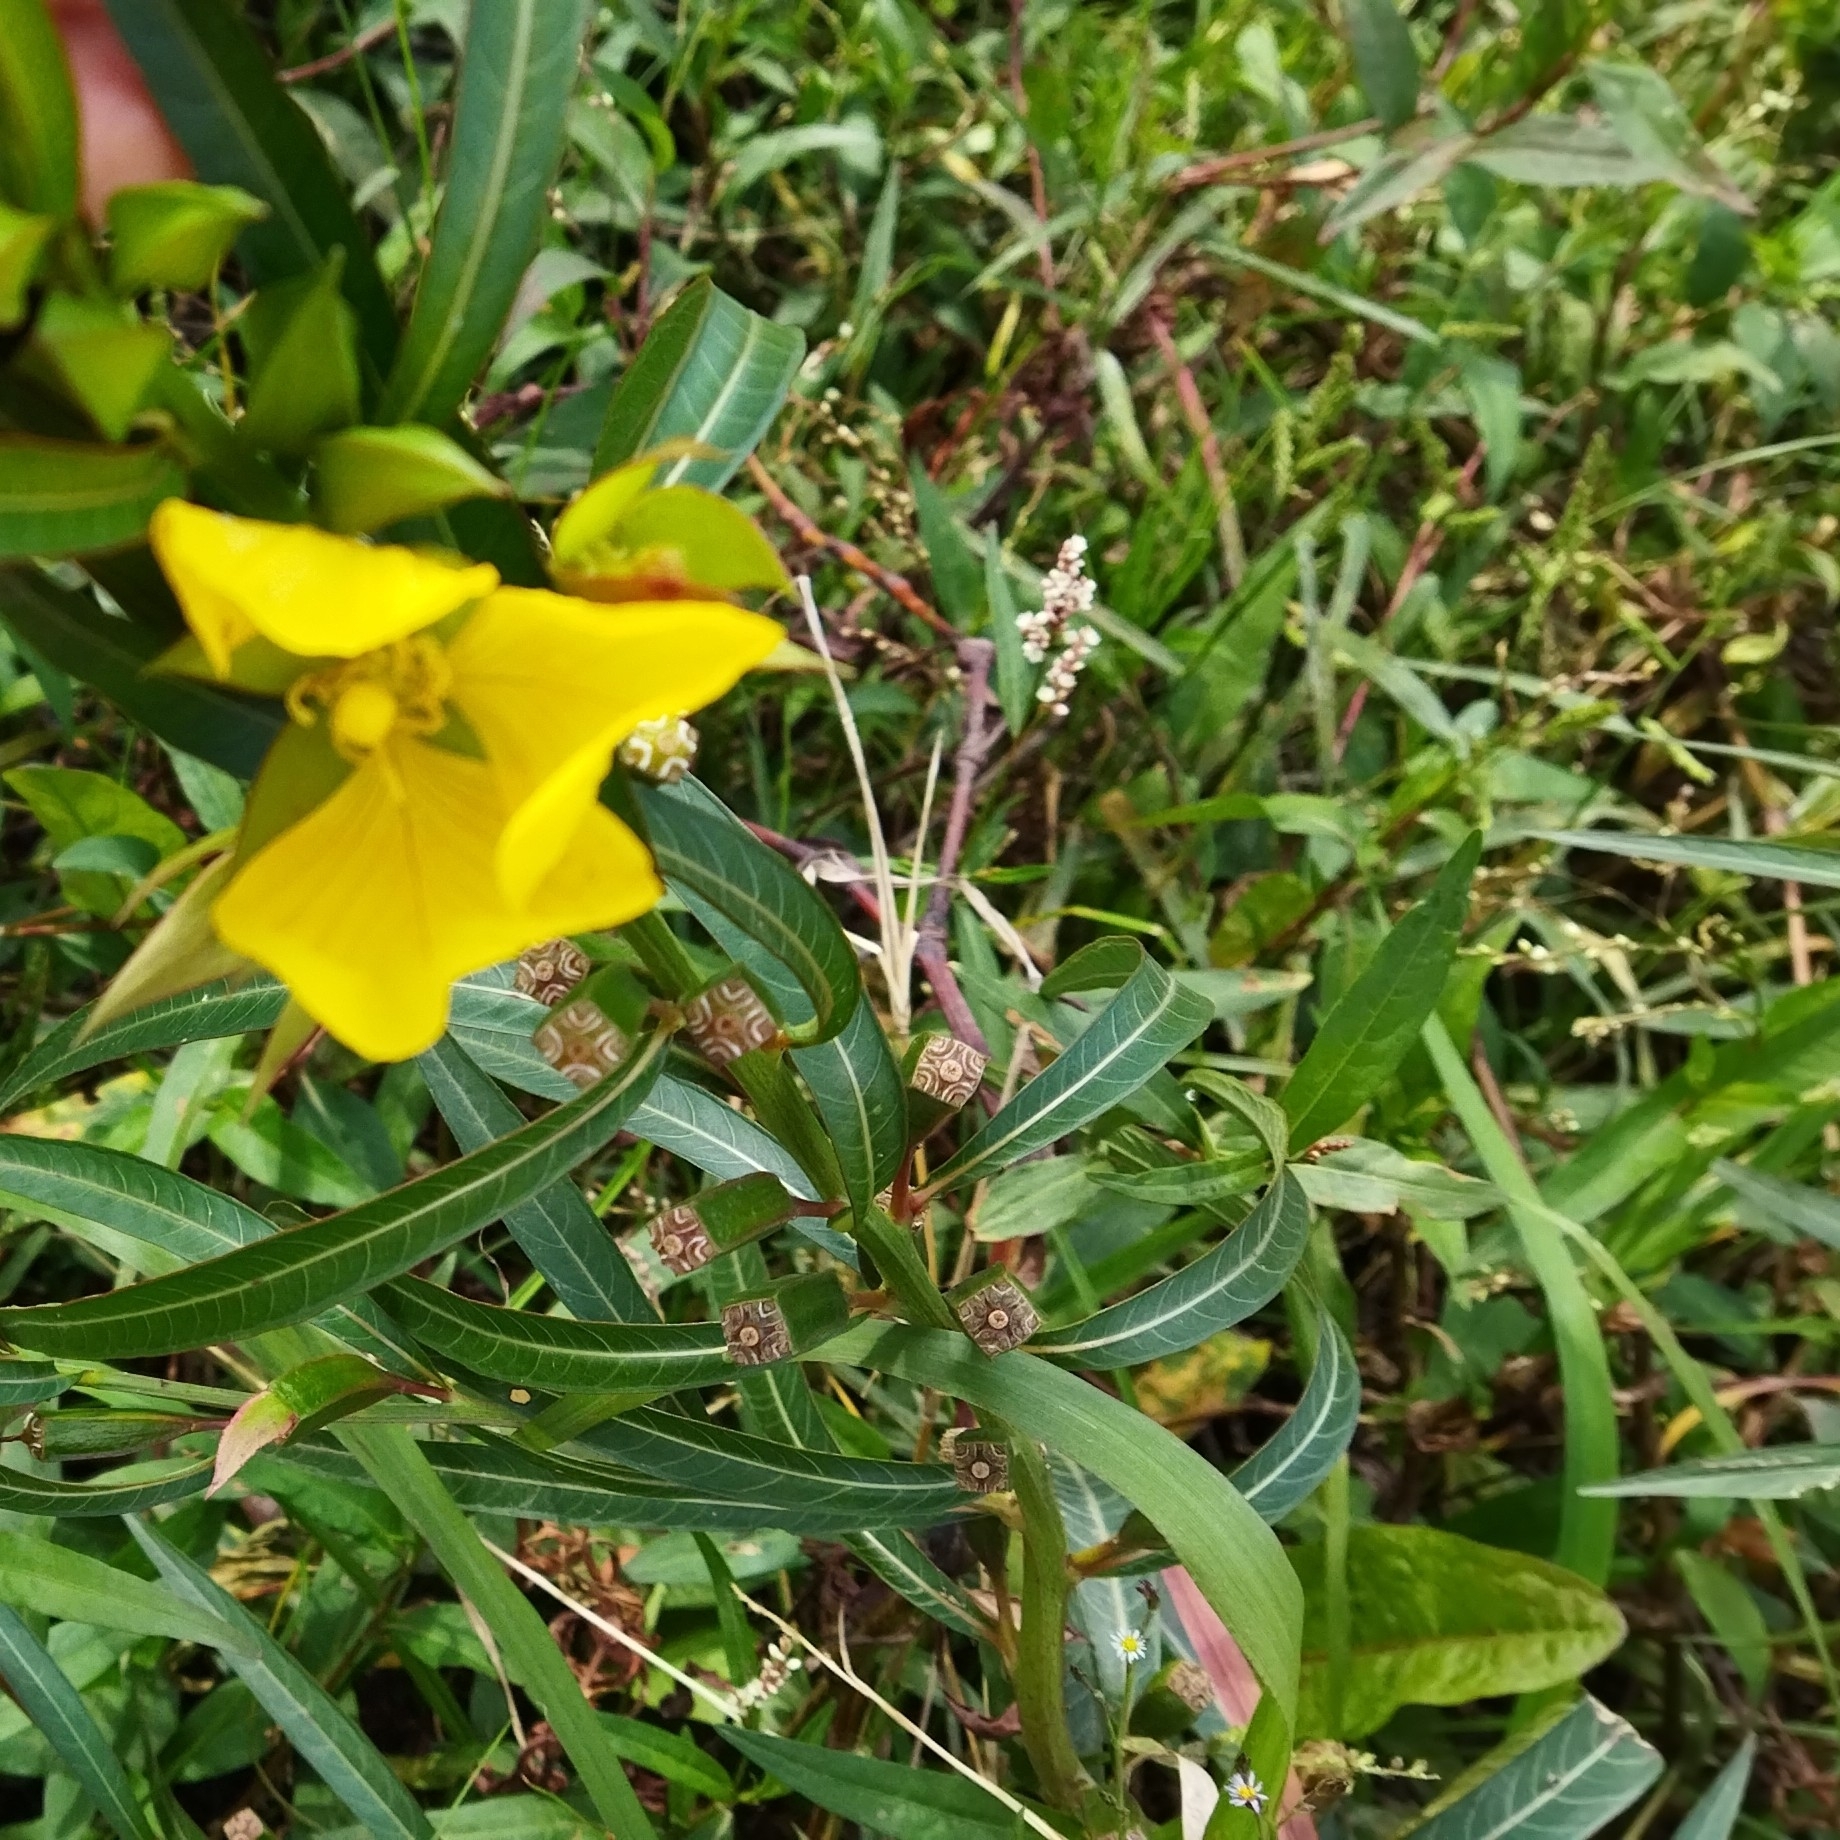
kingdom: Plantae
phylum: Tracheophyta
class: Magnoliopsida
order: Myrtales
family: Onagraceae
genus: Ludwigia
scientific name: Ludwigia longifolia
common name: Longleaf primrose-willow
